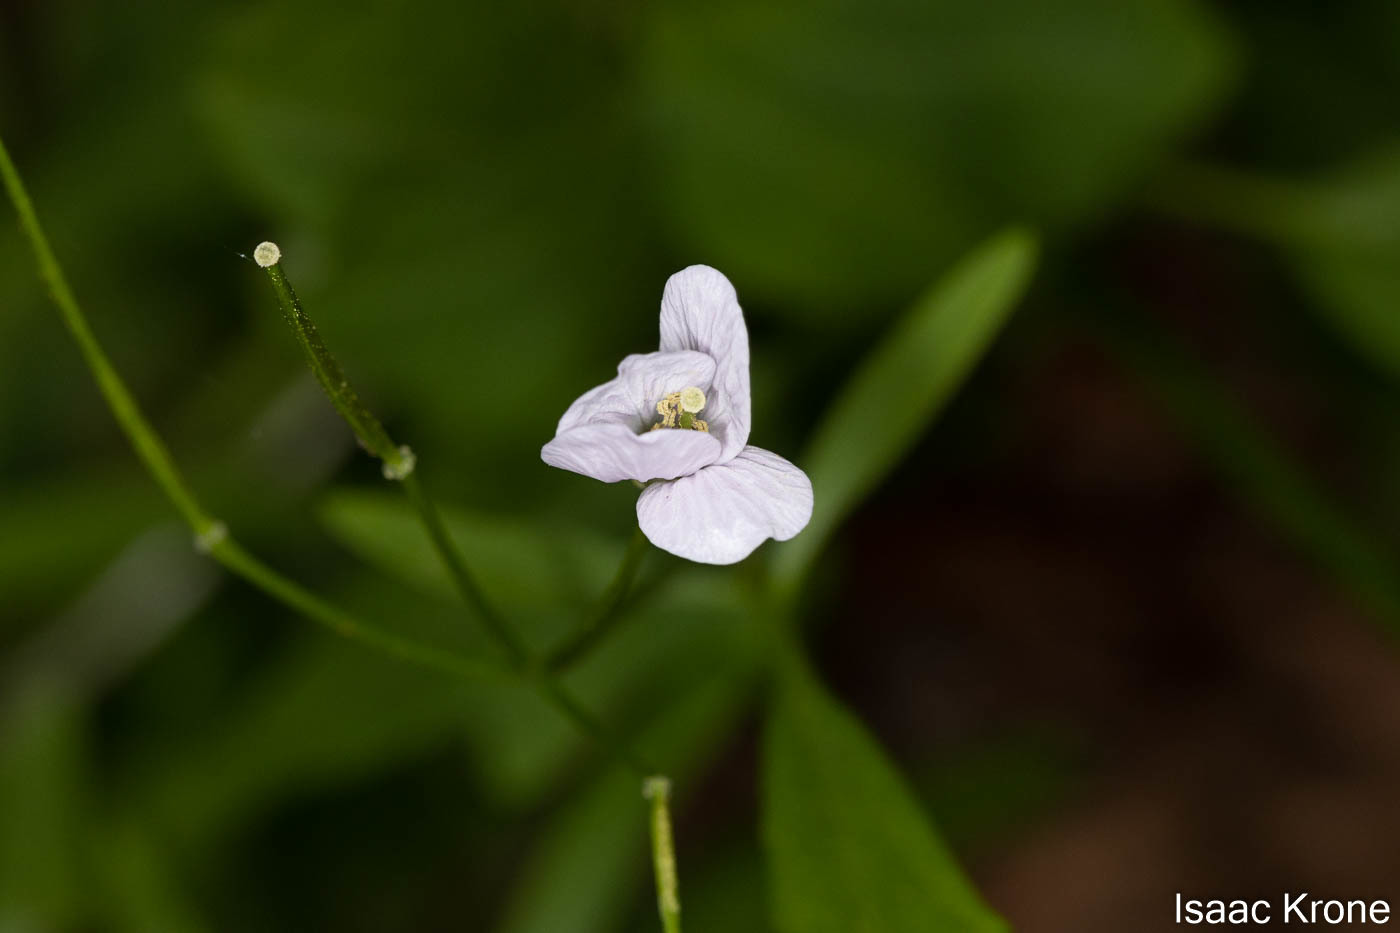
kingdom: Plantae
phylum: Tracheophyta
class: Magnoliopsida
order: Brassicales
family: Brassicaceae
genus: Cardamine
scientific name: Cardamine californica
